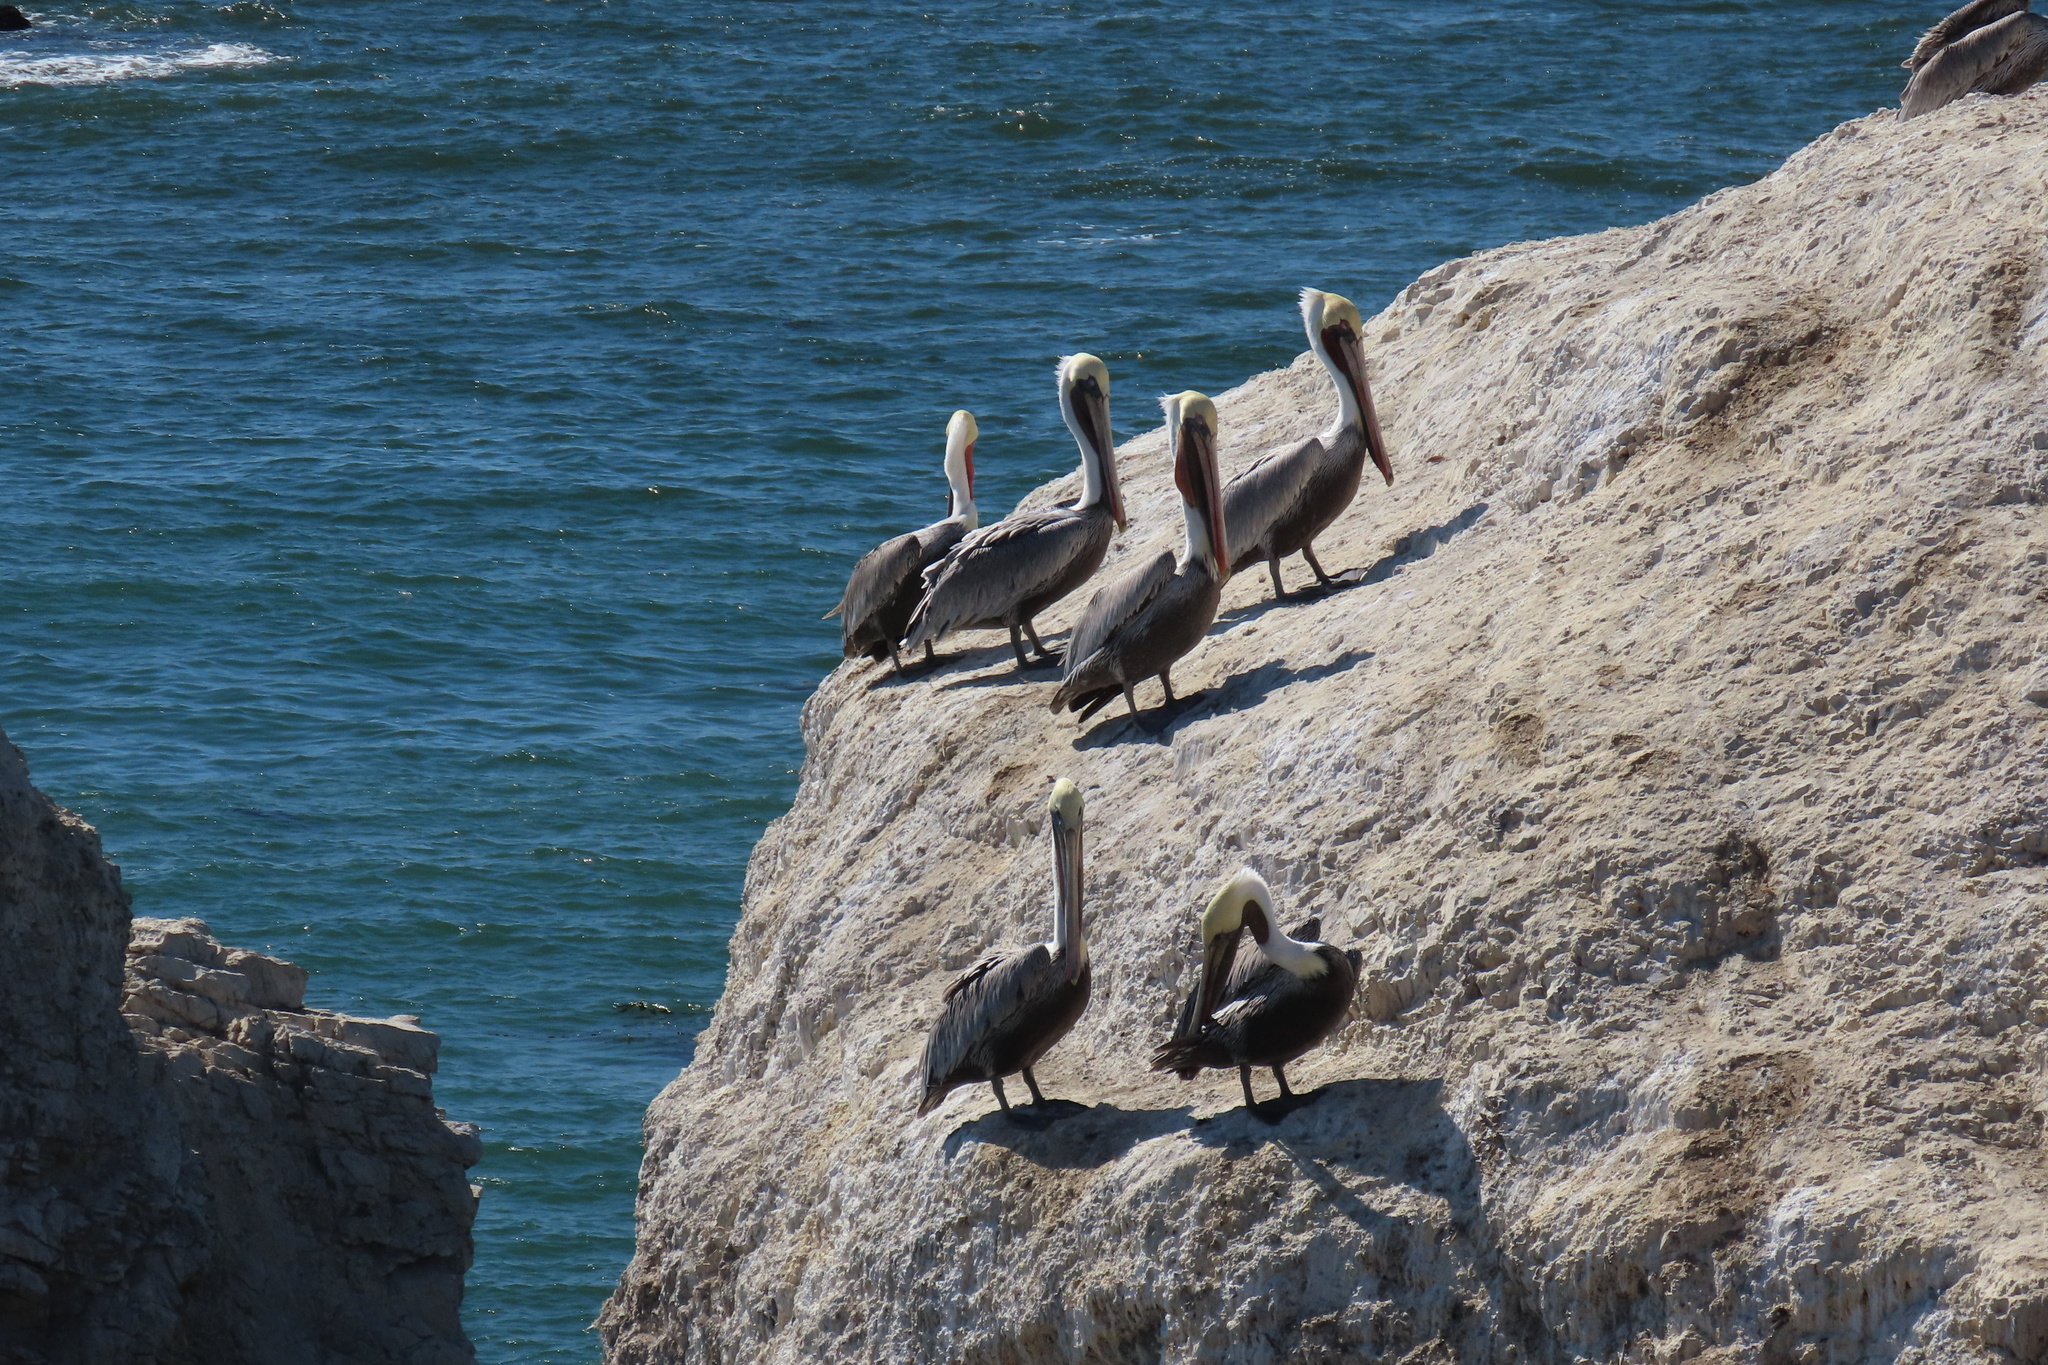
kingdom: Animalia
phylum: Chordata
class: Aves
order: Pelecaniformes
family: Pelecanidae
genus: Pelecanus
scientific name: Pelecanus occidentalis
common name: Brown pelican
